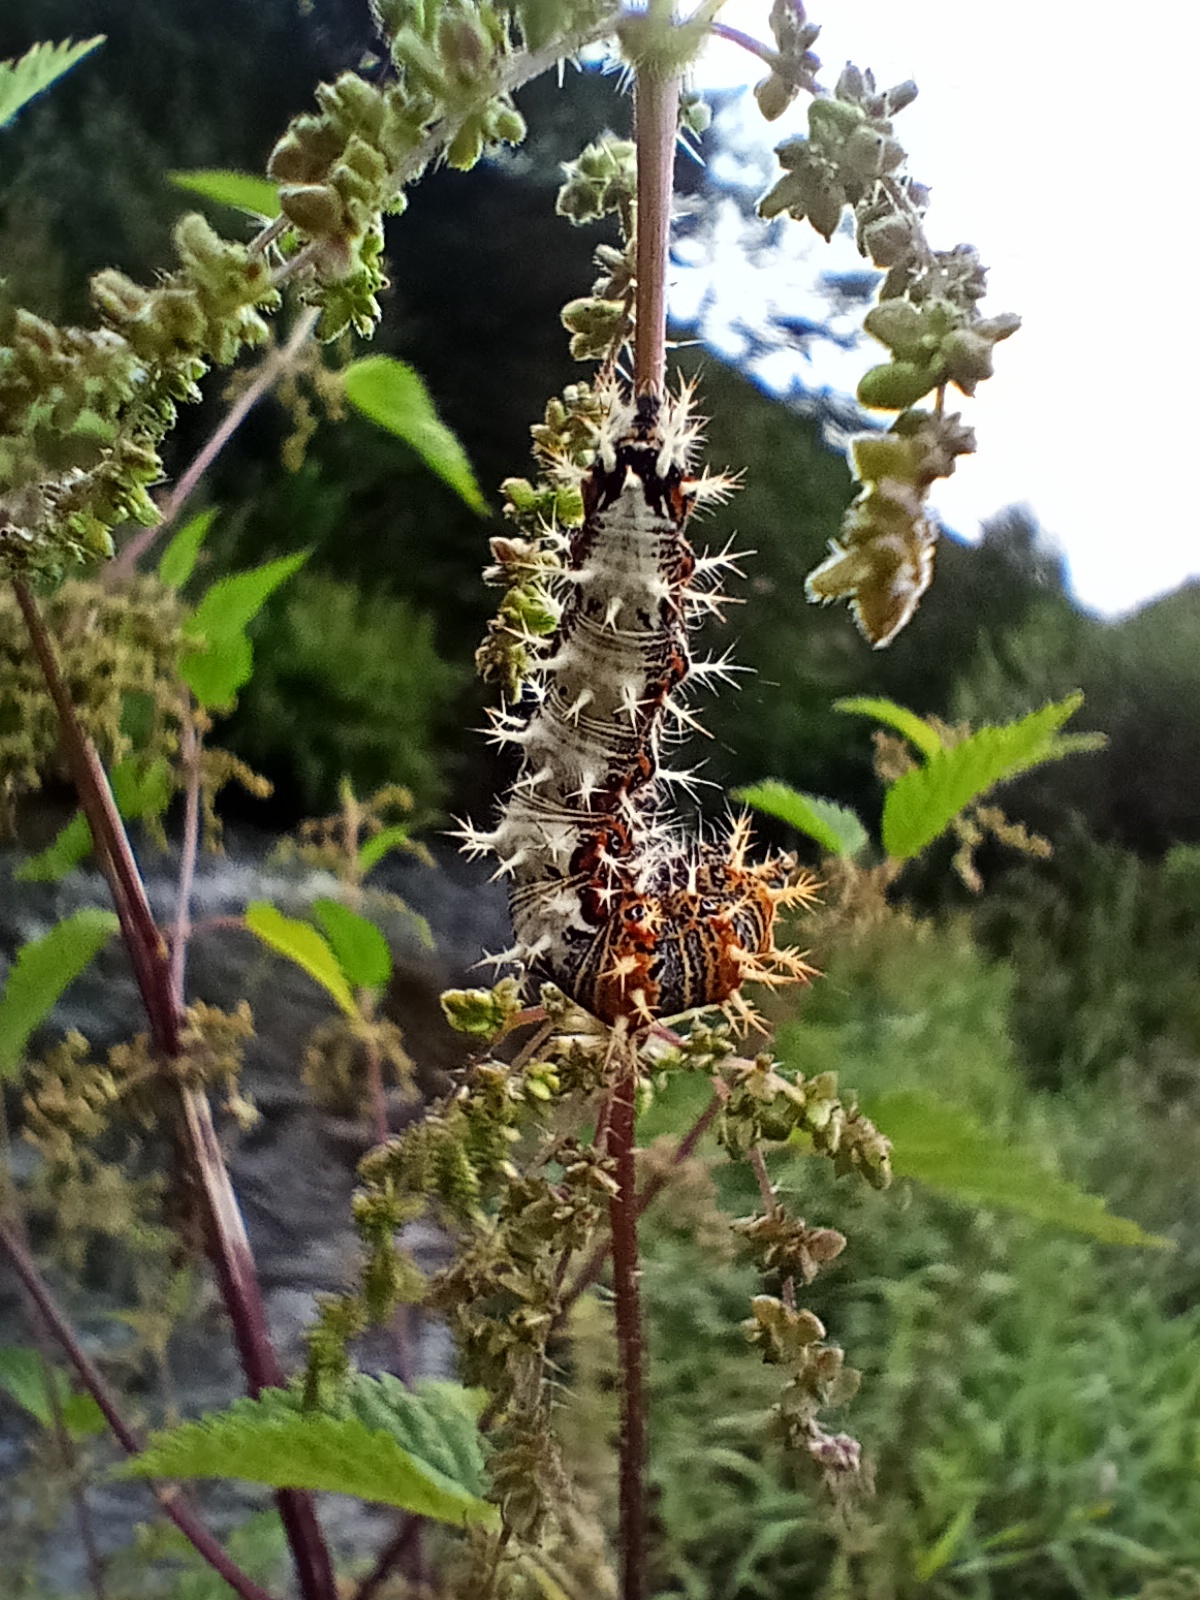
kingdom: Animalia
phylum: Arthropoda
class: Insecta
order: Lepidoptera
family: Nymphalidae
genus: Polygonia
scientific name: Polygonia c-album
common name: Comma
